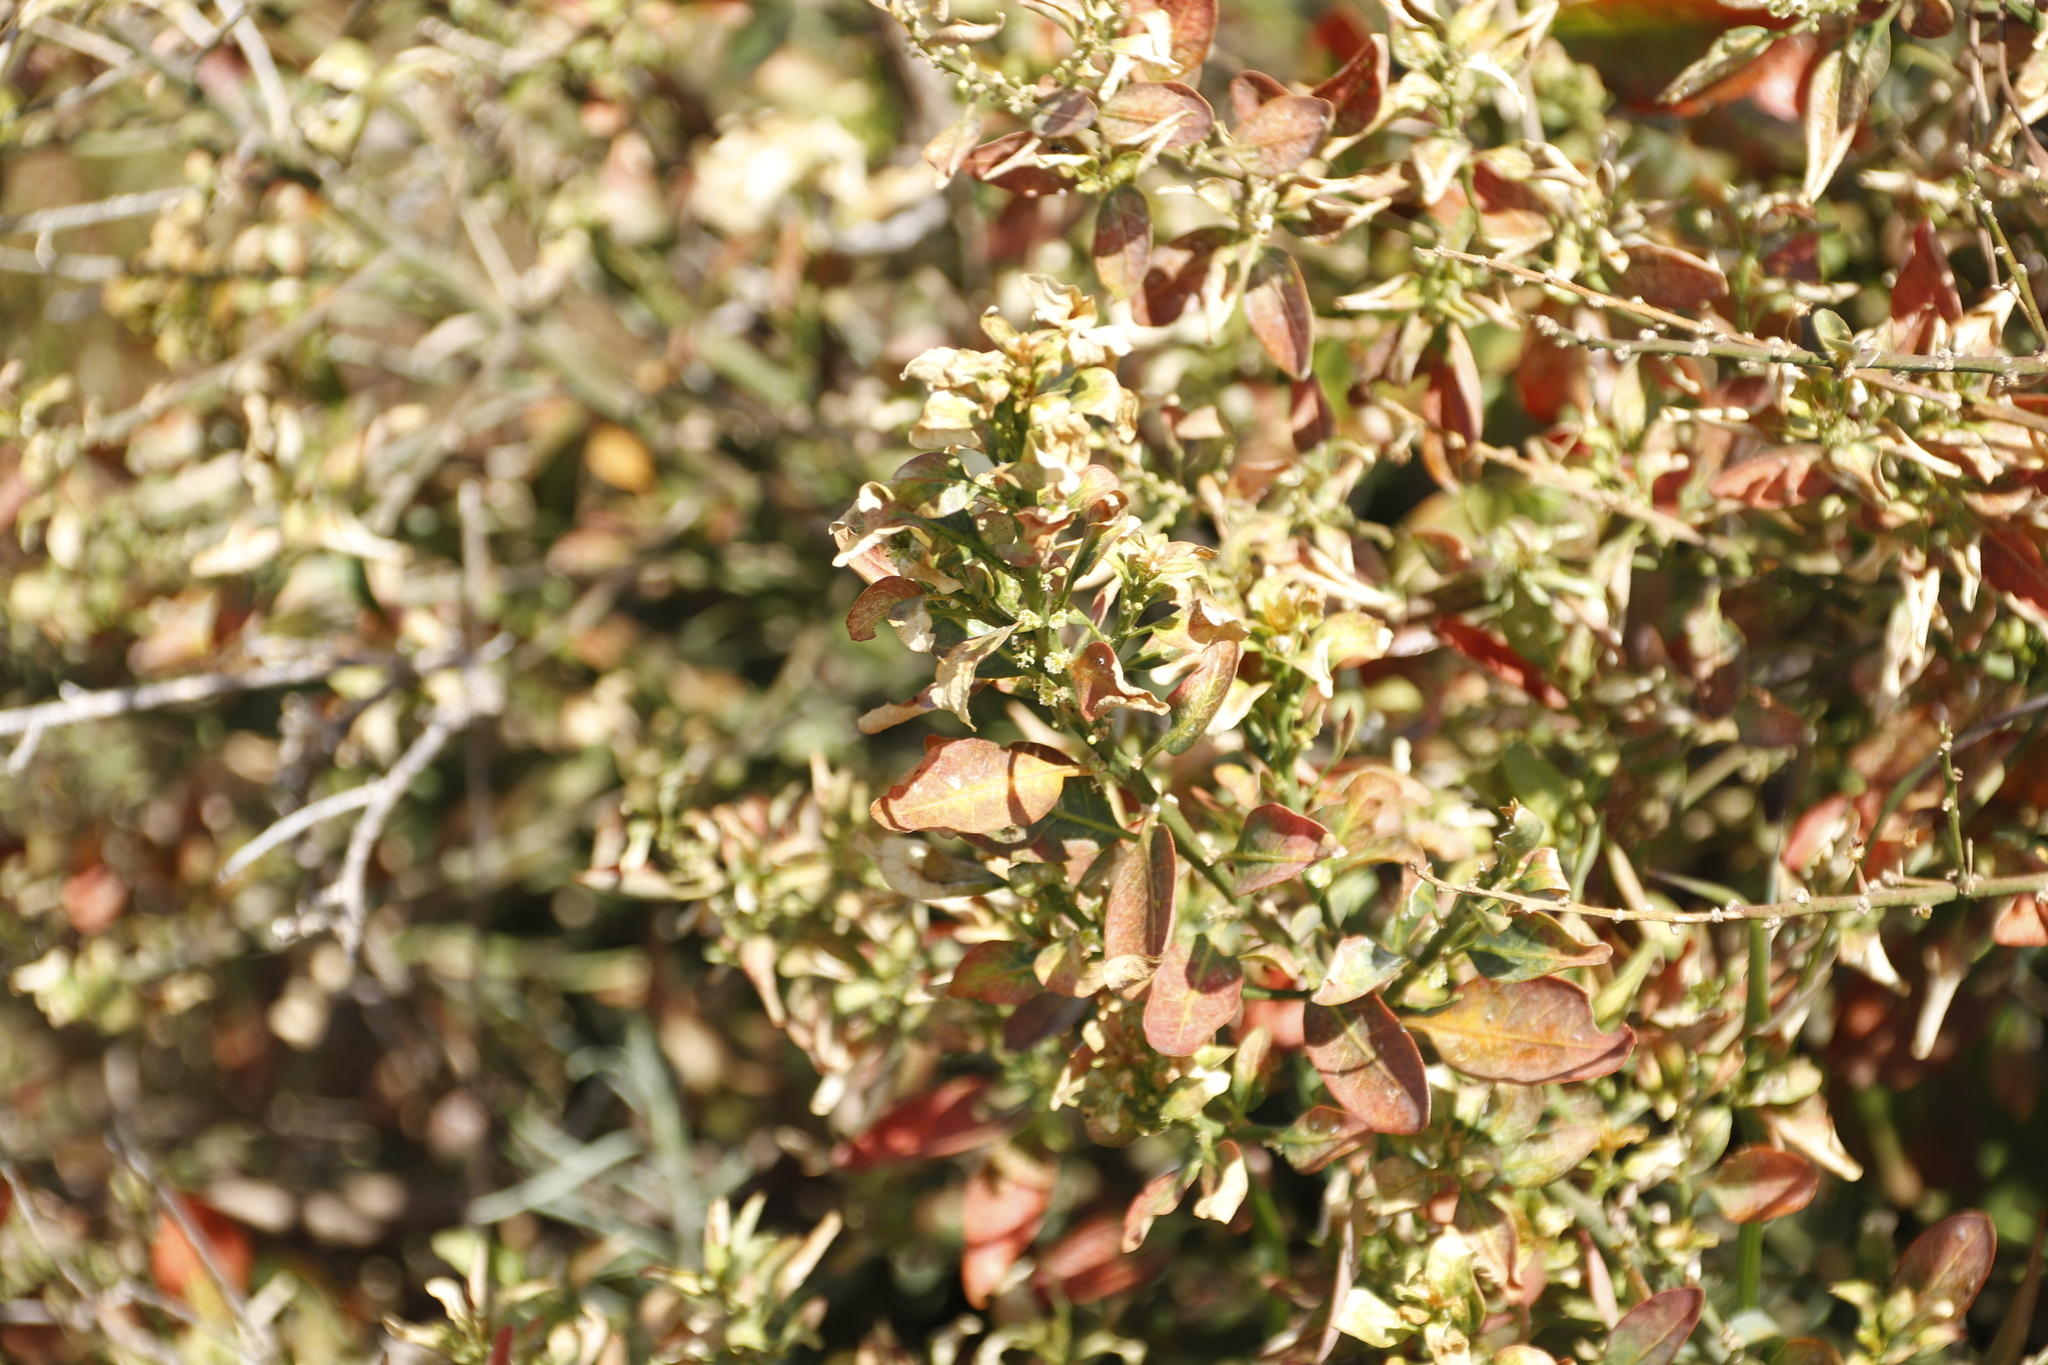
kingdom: Plantae
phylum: Tracheophyta
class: Magnoliopsida
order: Malpighiales
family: Peraceae
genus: Clutia
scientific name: Clutia pulchella
